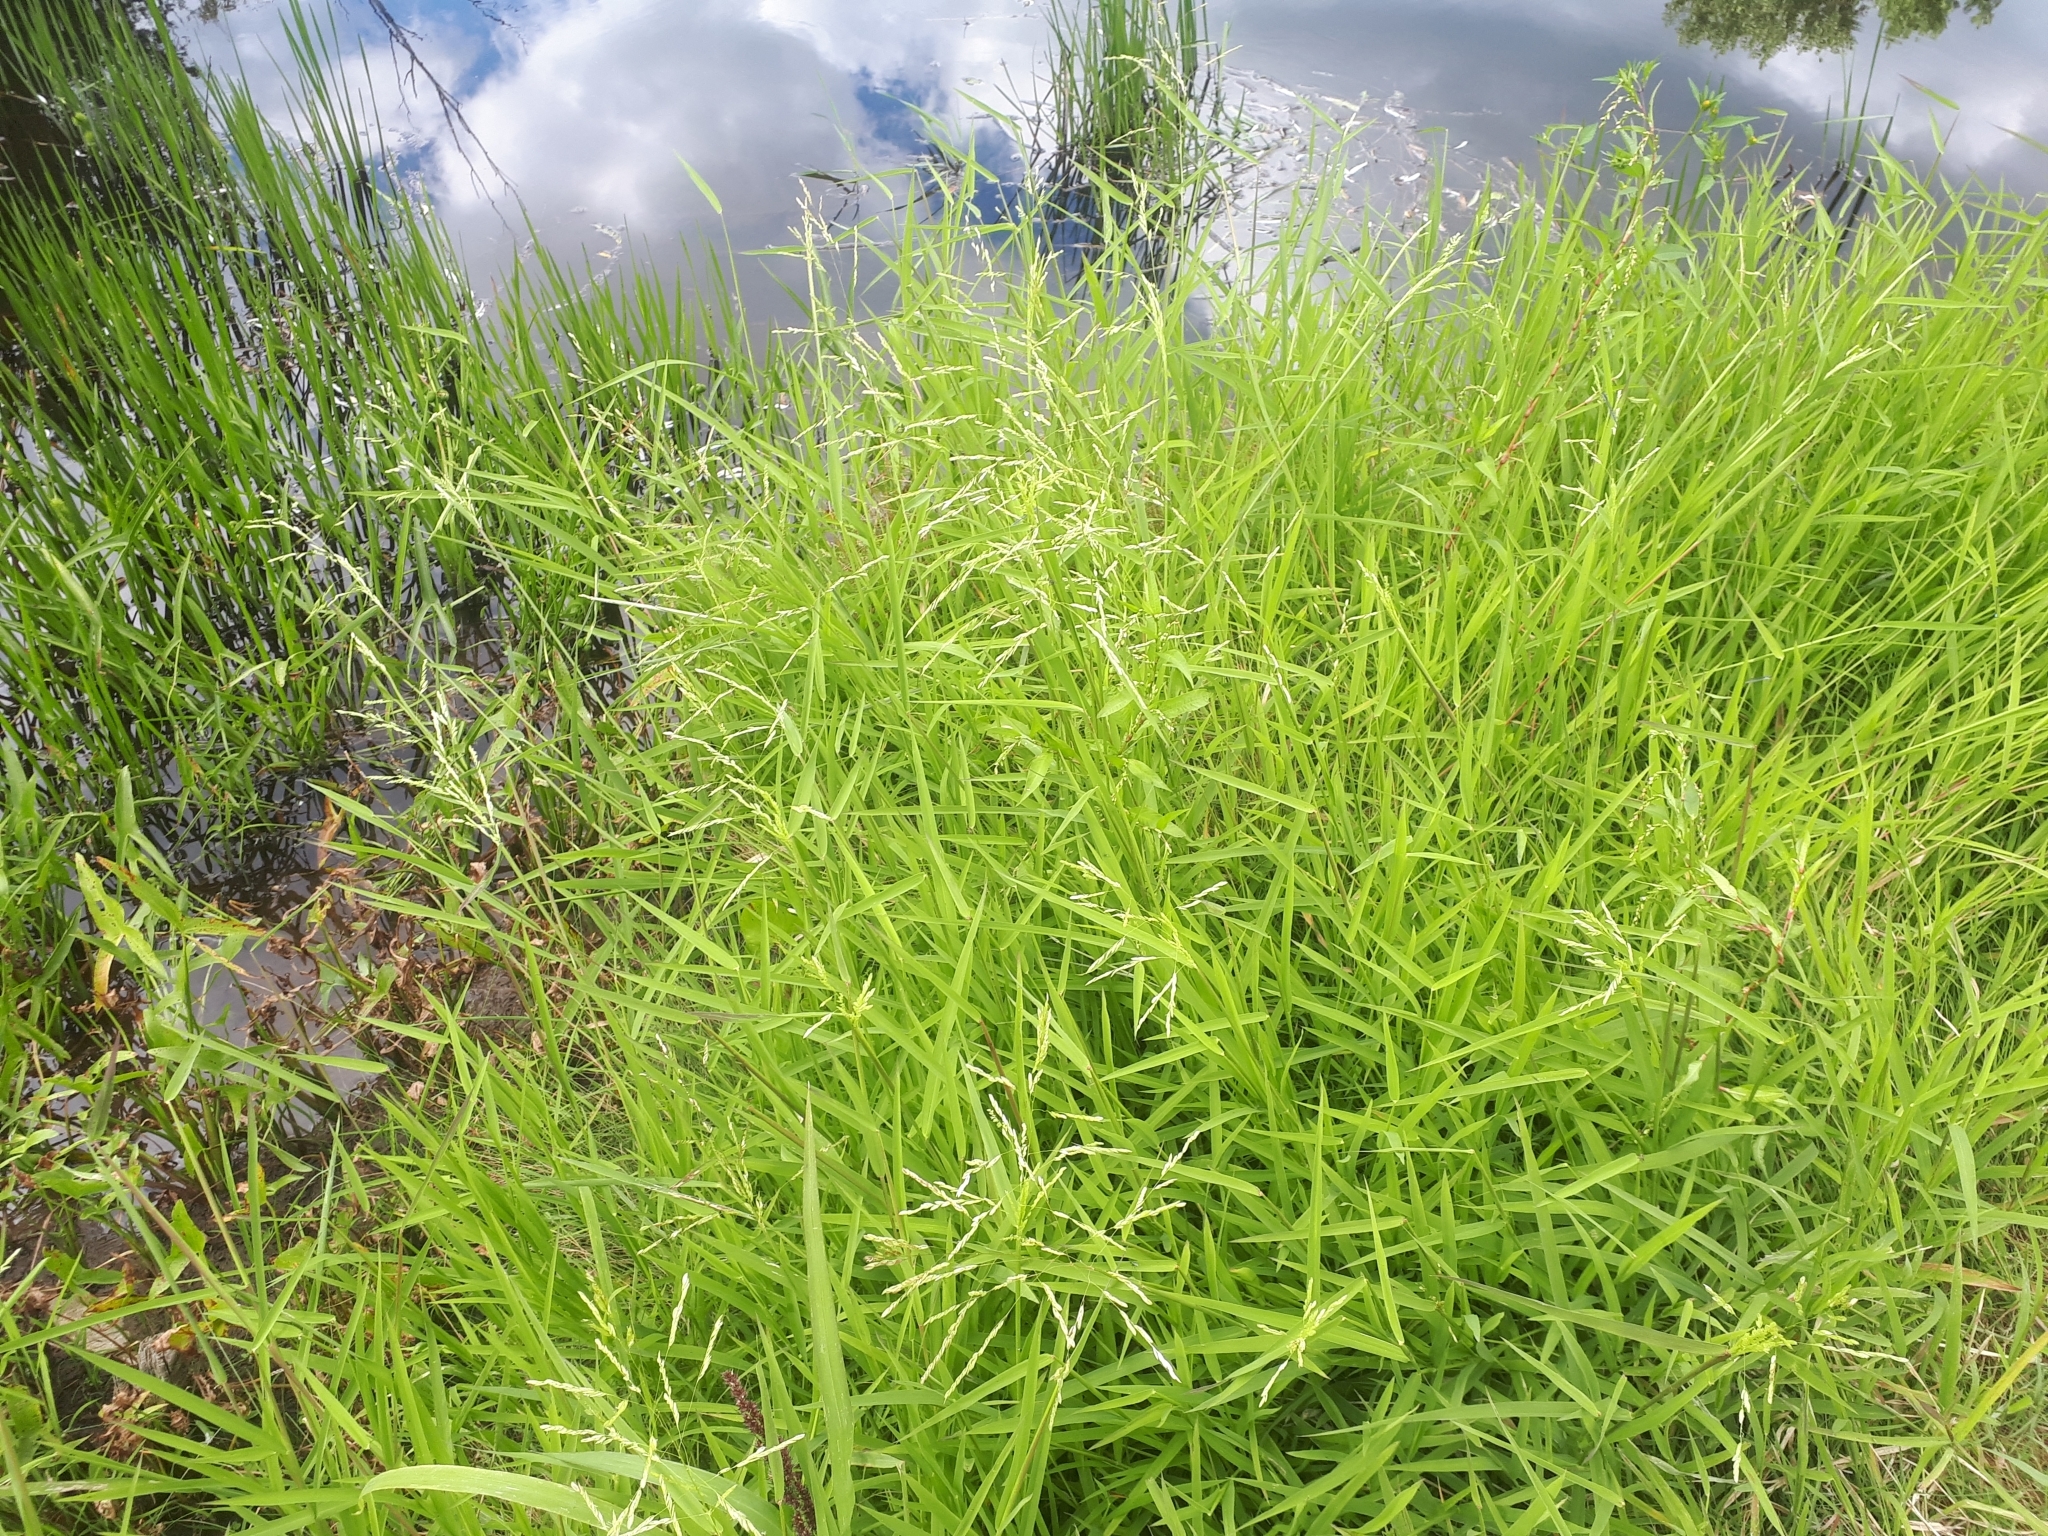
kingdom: Plantae
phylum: Tracheophyta
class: Liliopsida
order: Poales
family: Poaceae
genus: Leersia
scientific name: Leersia oryzoides
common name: Cut-grass
